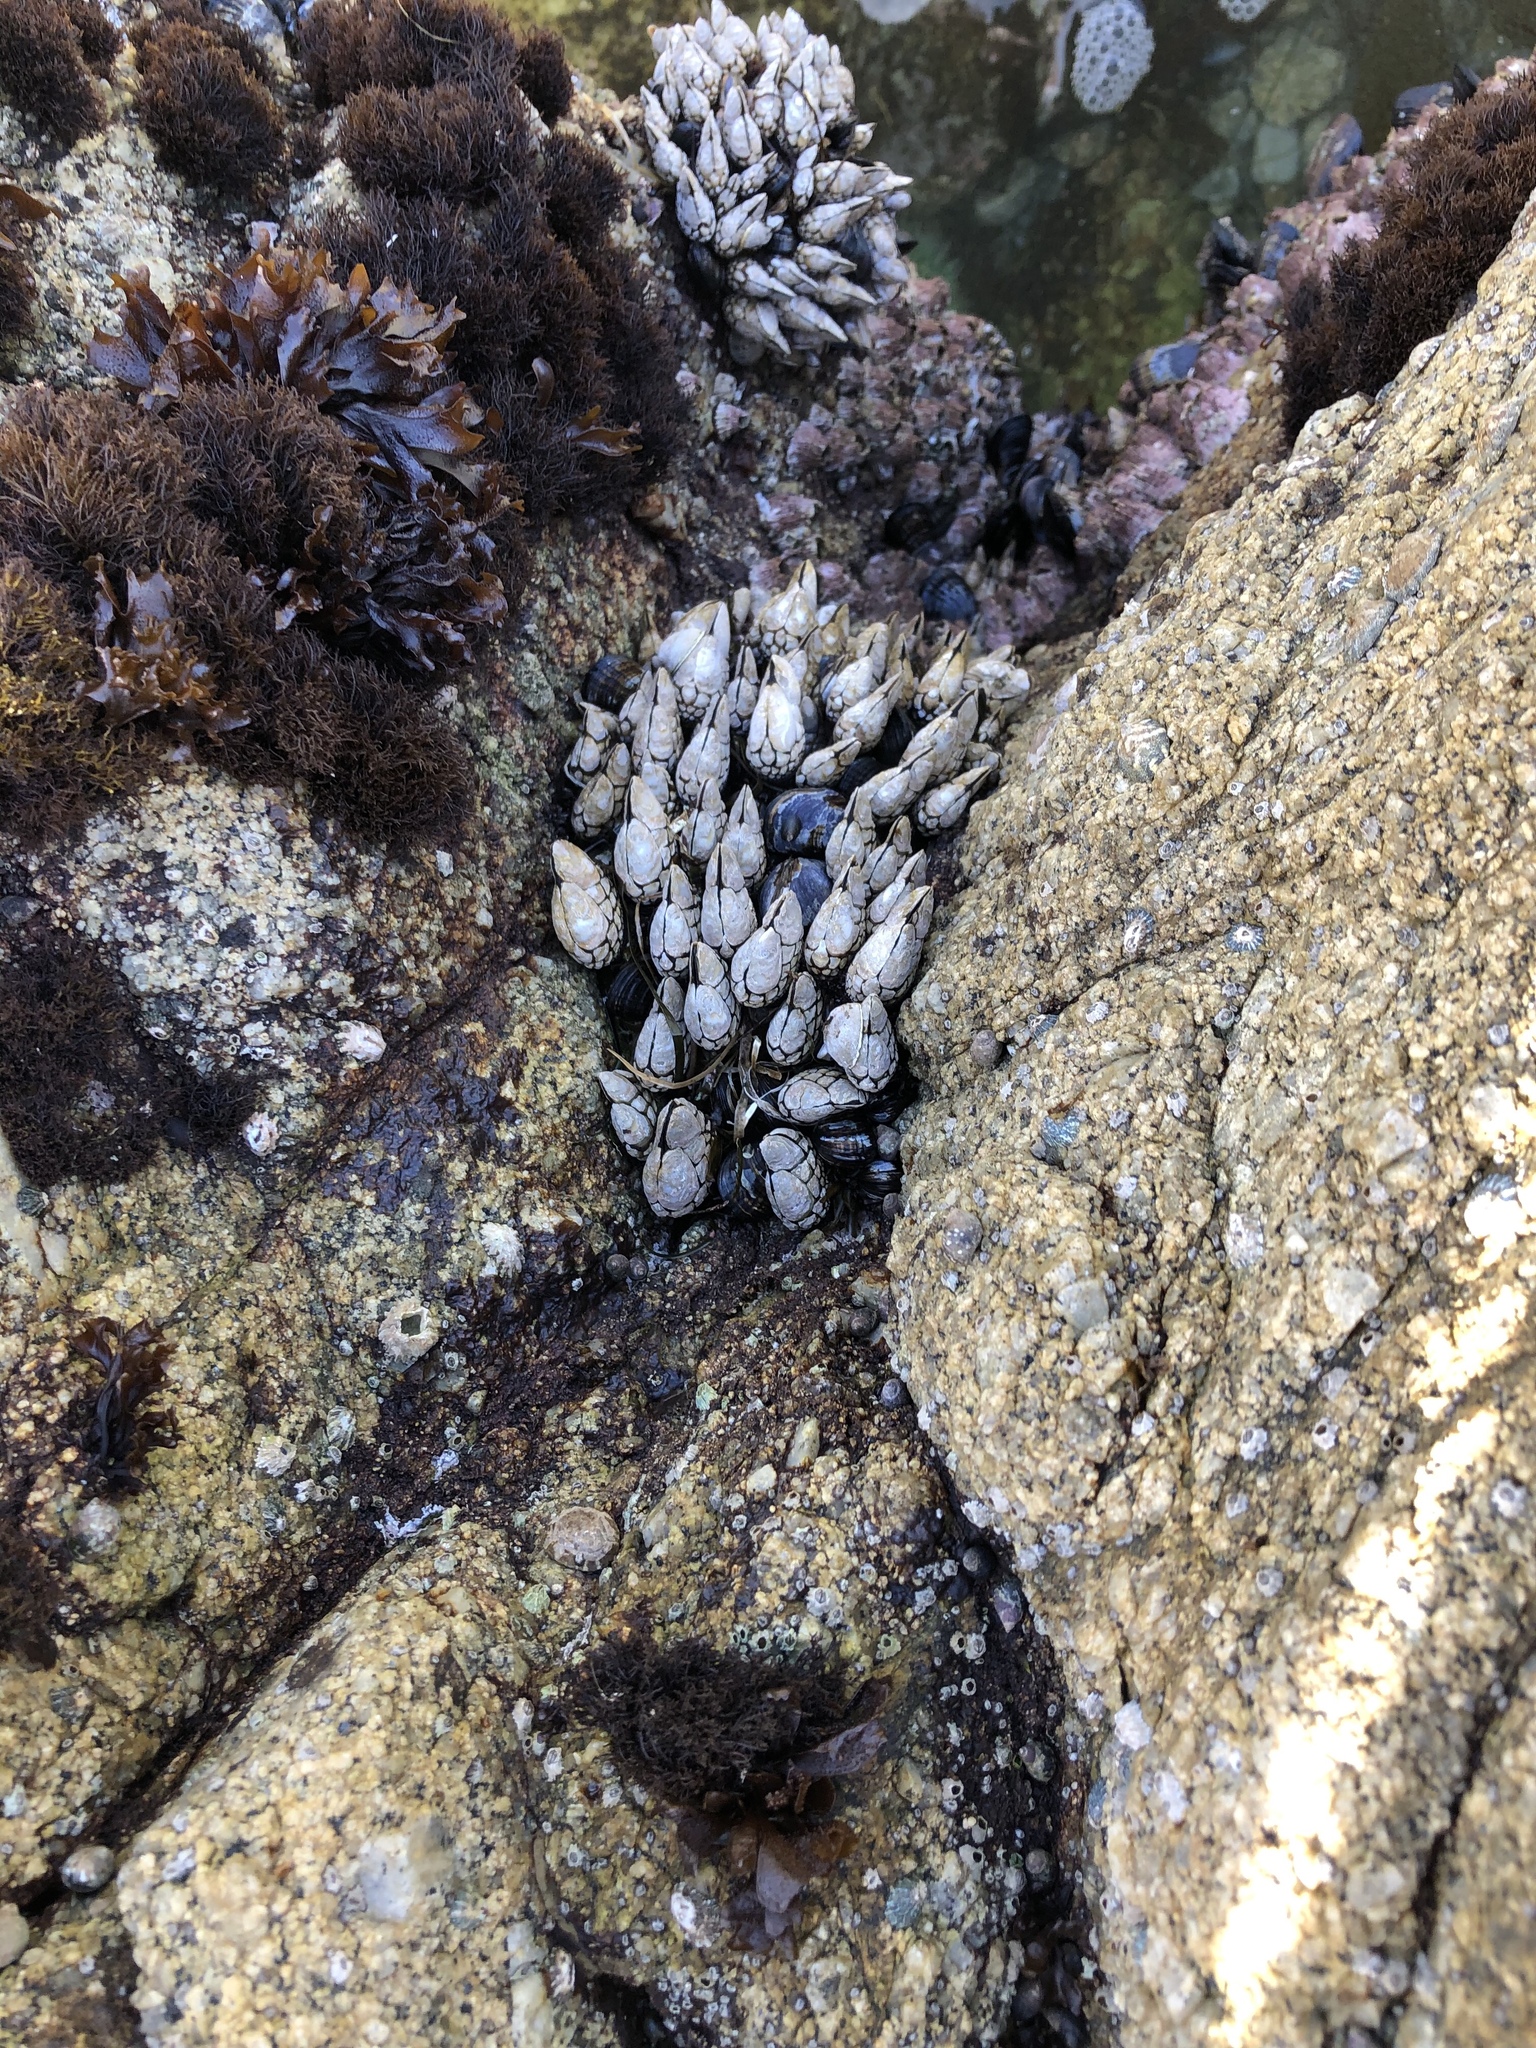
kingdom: Animalia
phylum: Arthropoda
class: Maxillopoda
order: Pedunculata
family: Pollicipedidae
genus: Pollicipes
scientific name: Pollicipes polymerus
